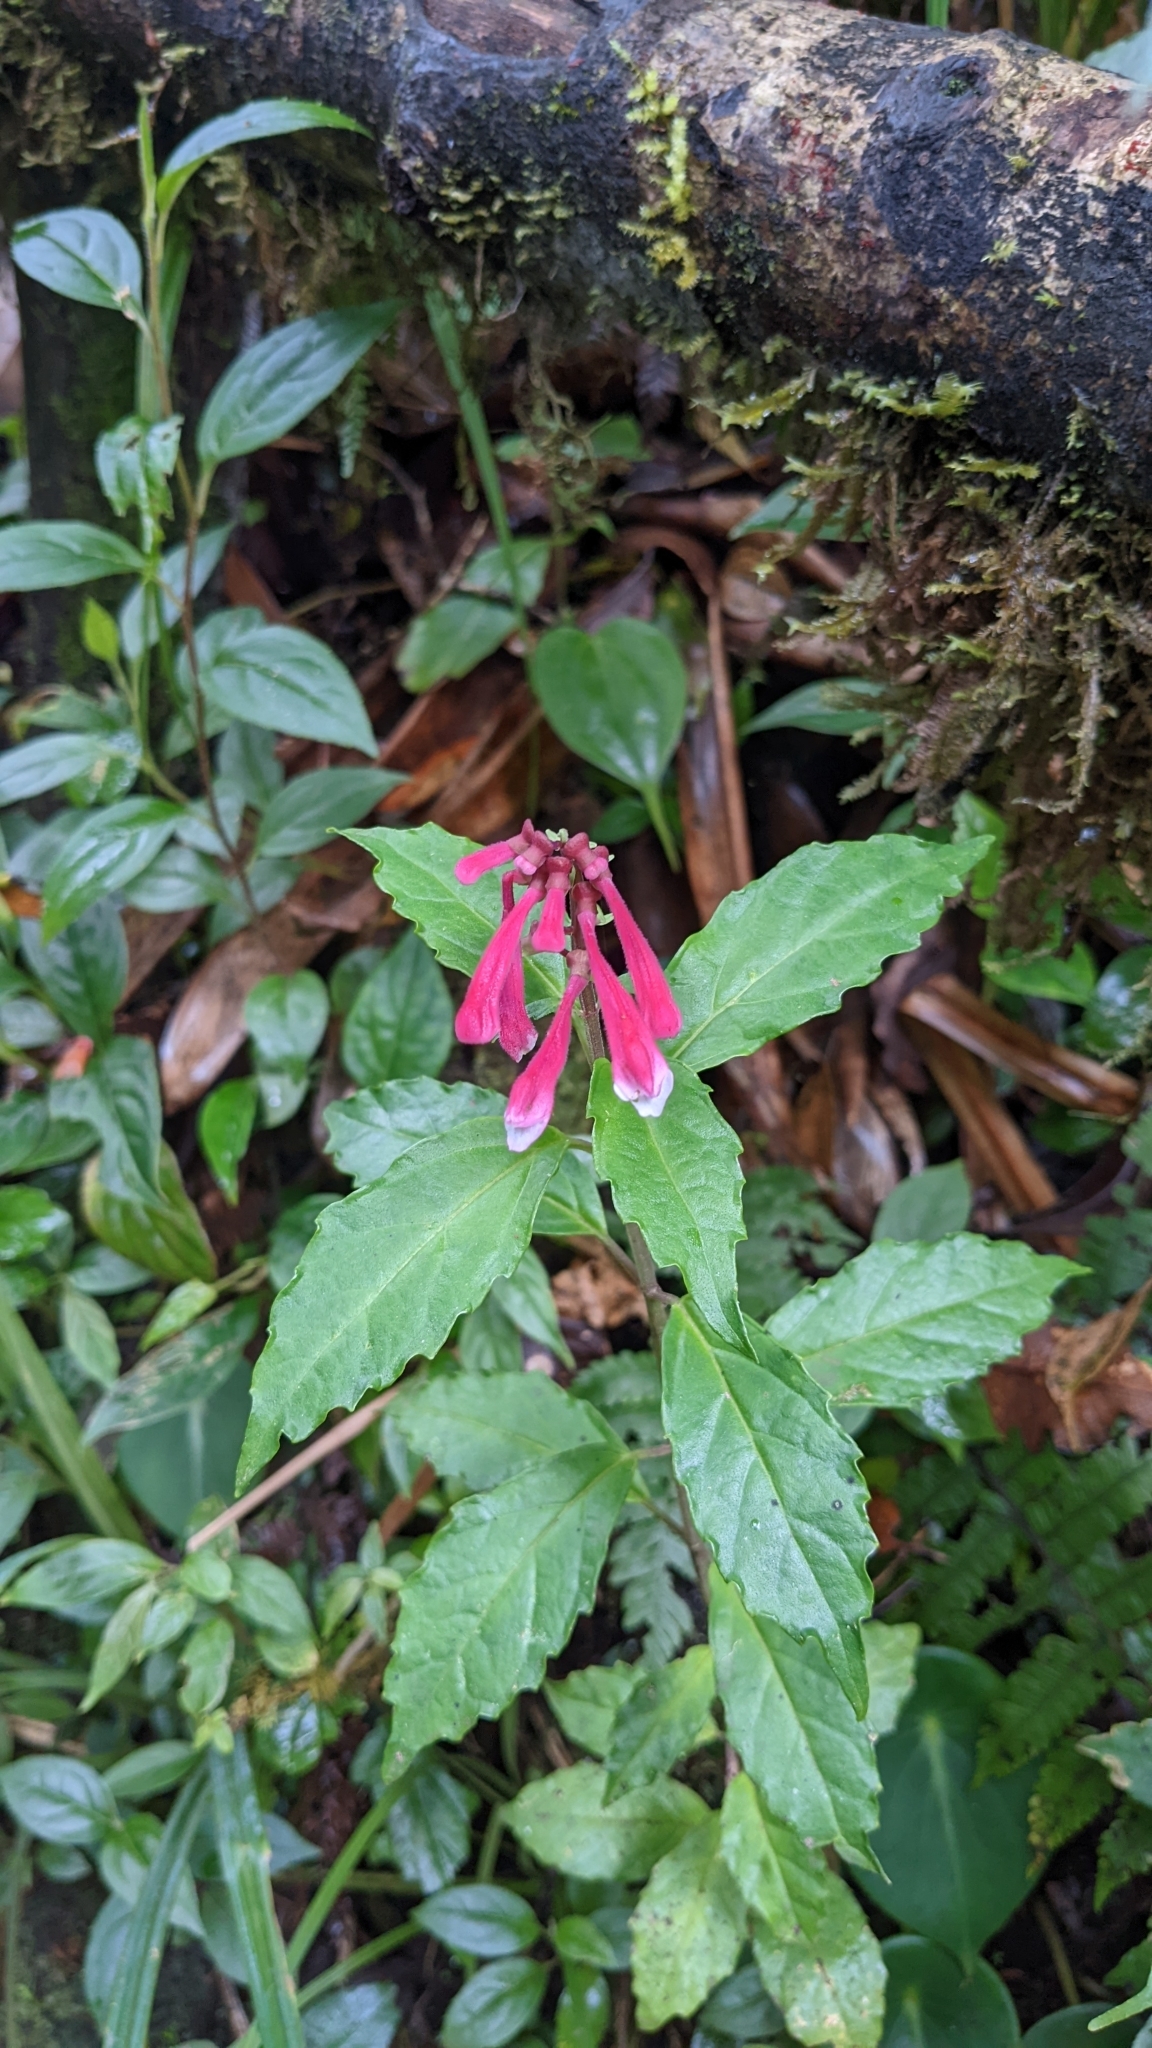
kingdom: Plantae
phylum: Tracheophyta
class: Magnoliopsida
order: Lamiales
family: Lamiaceae
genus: Scutellaria
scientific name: Scutellaria isocheila
